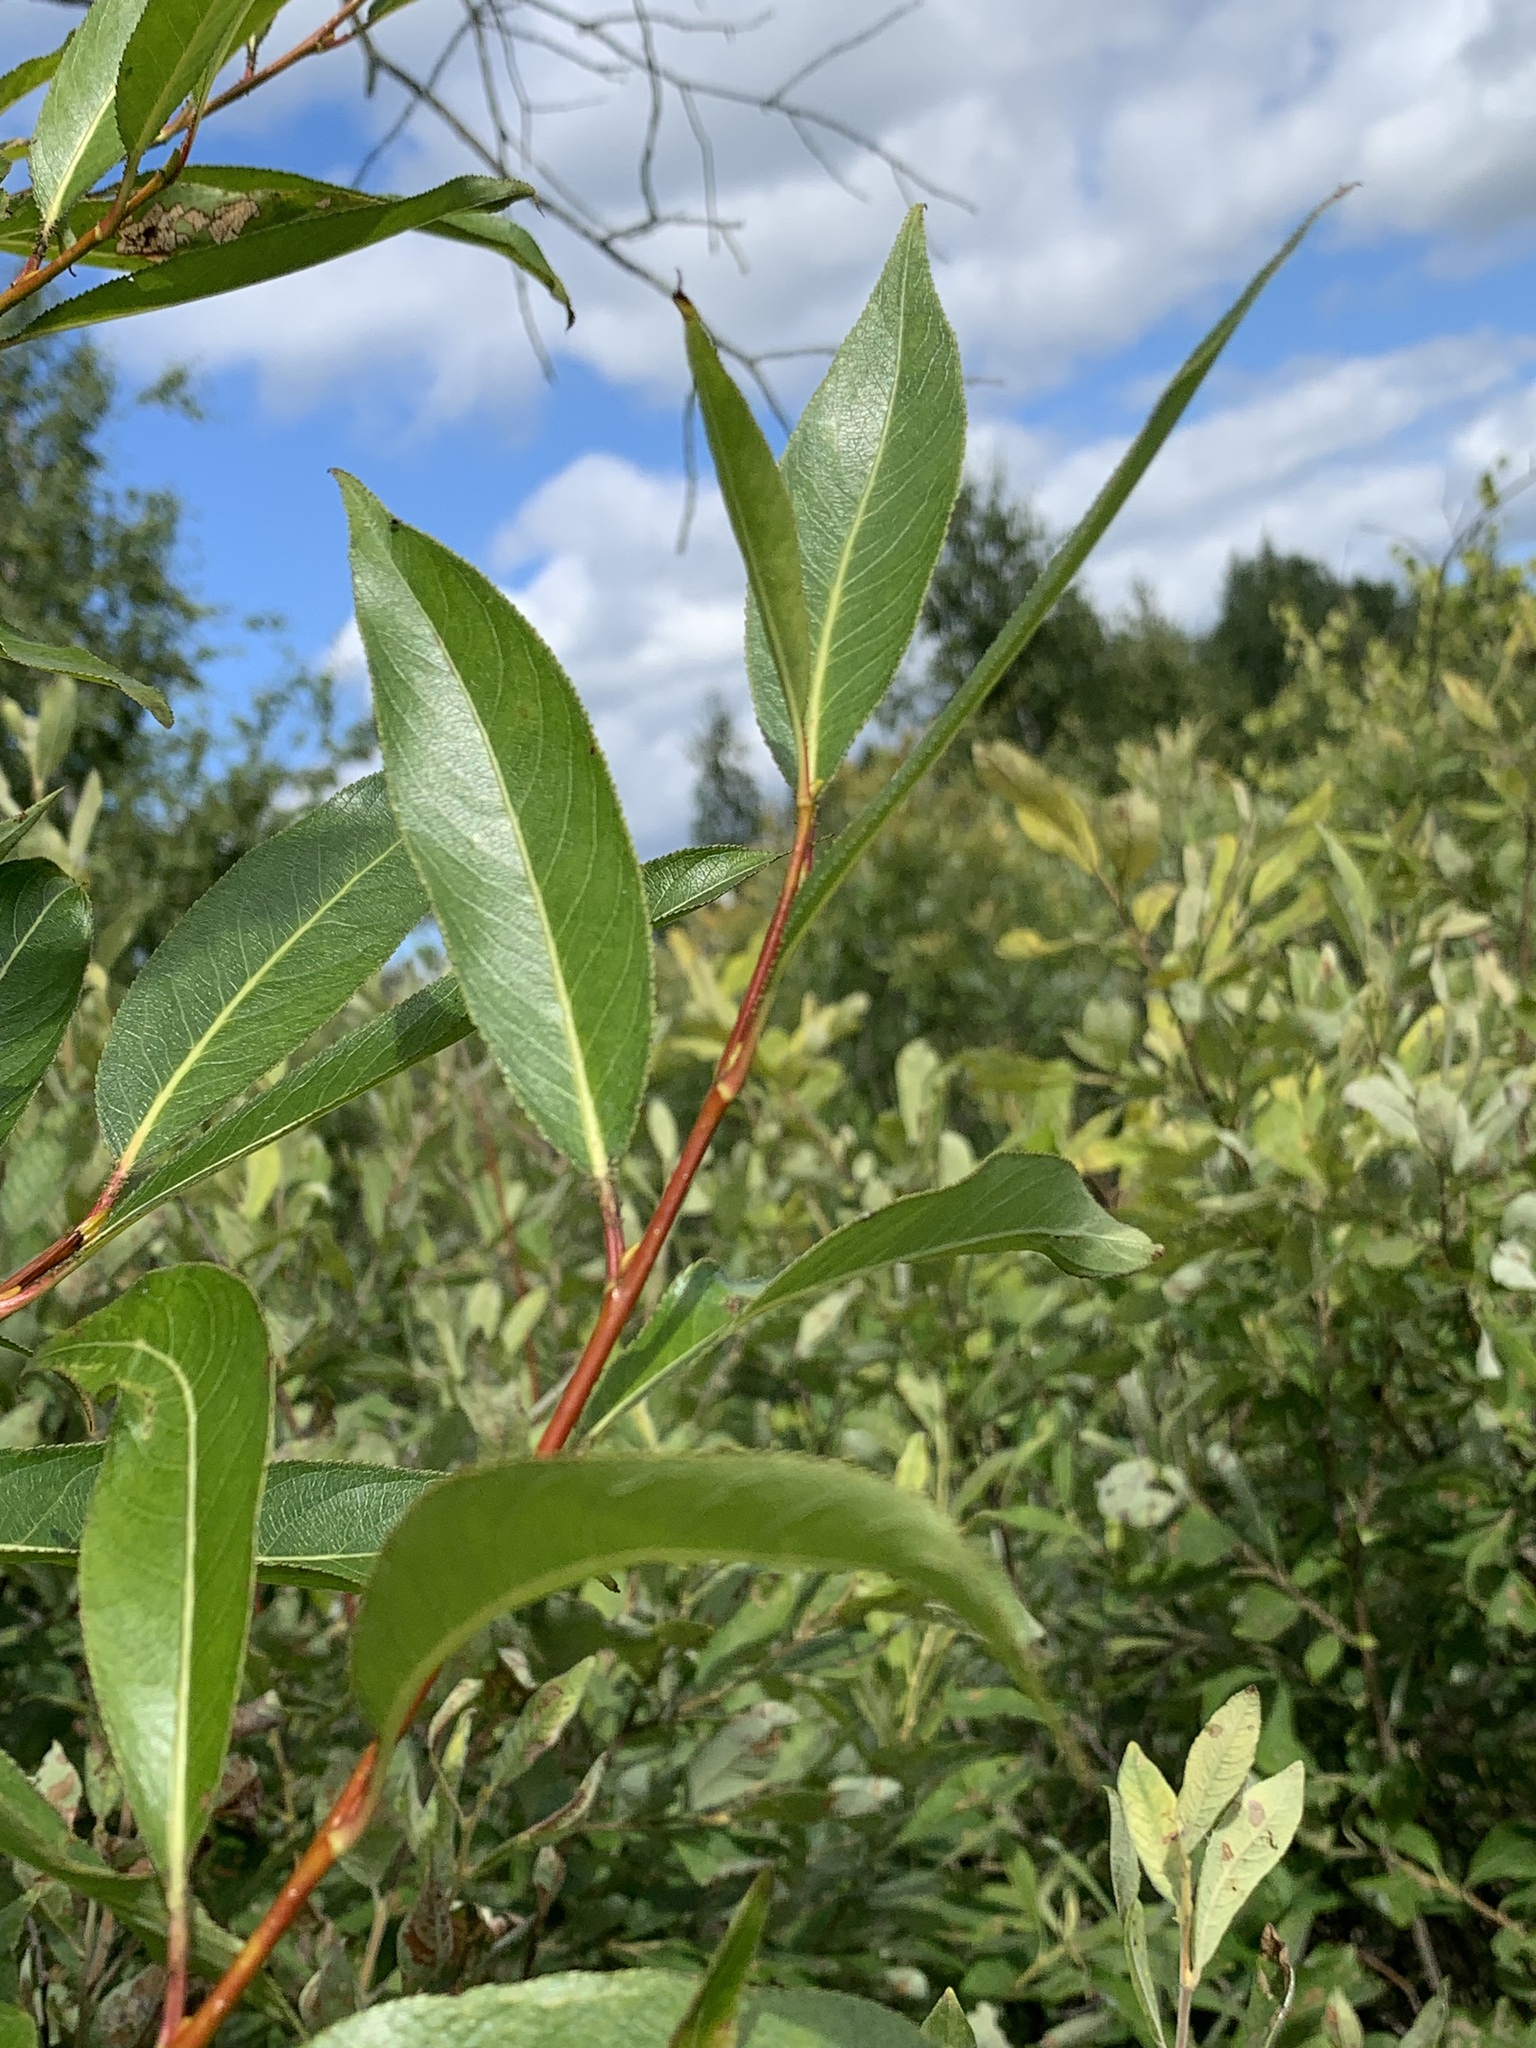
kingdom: Plantae
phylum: Tracheophyta
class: Magnoliopsida
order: Malpighiales
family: Salicaceae
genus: Salix
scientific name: Salix pentandra
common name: Bay willow
